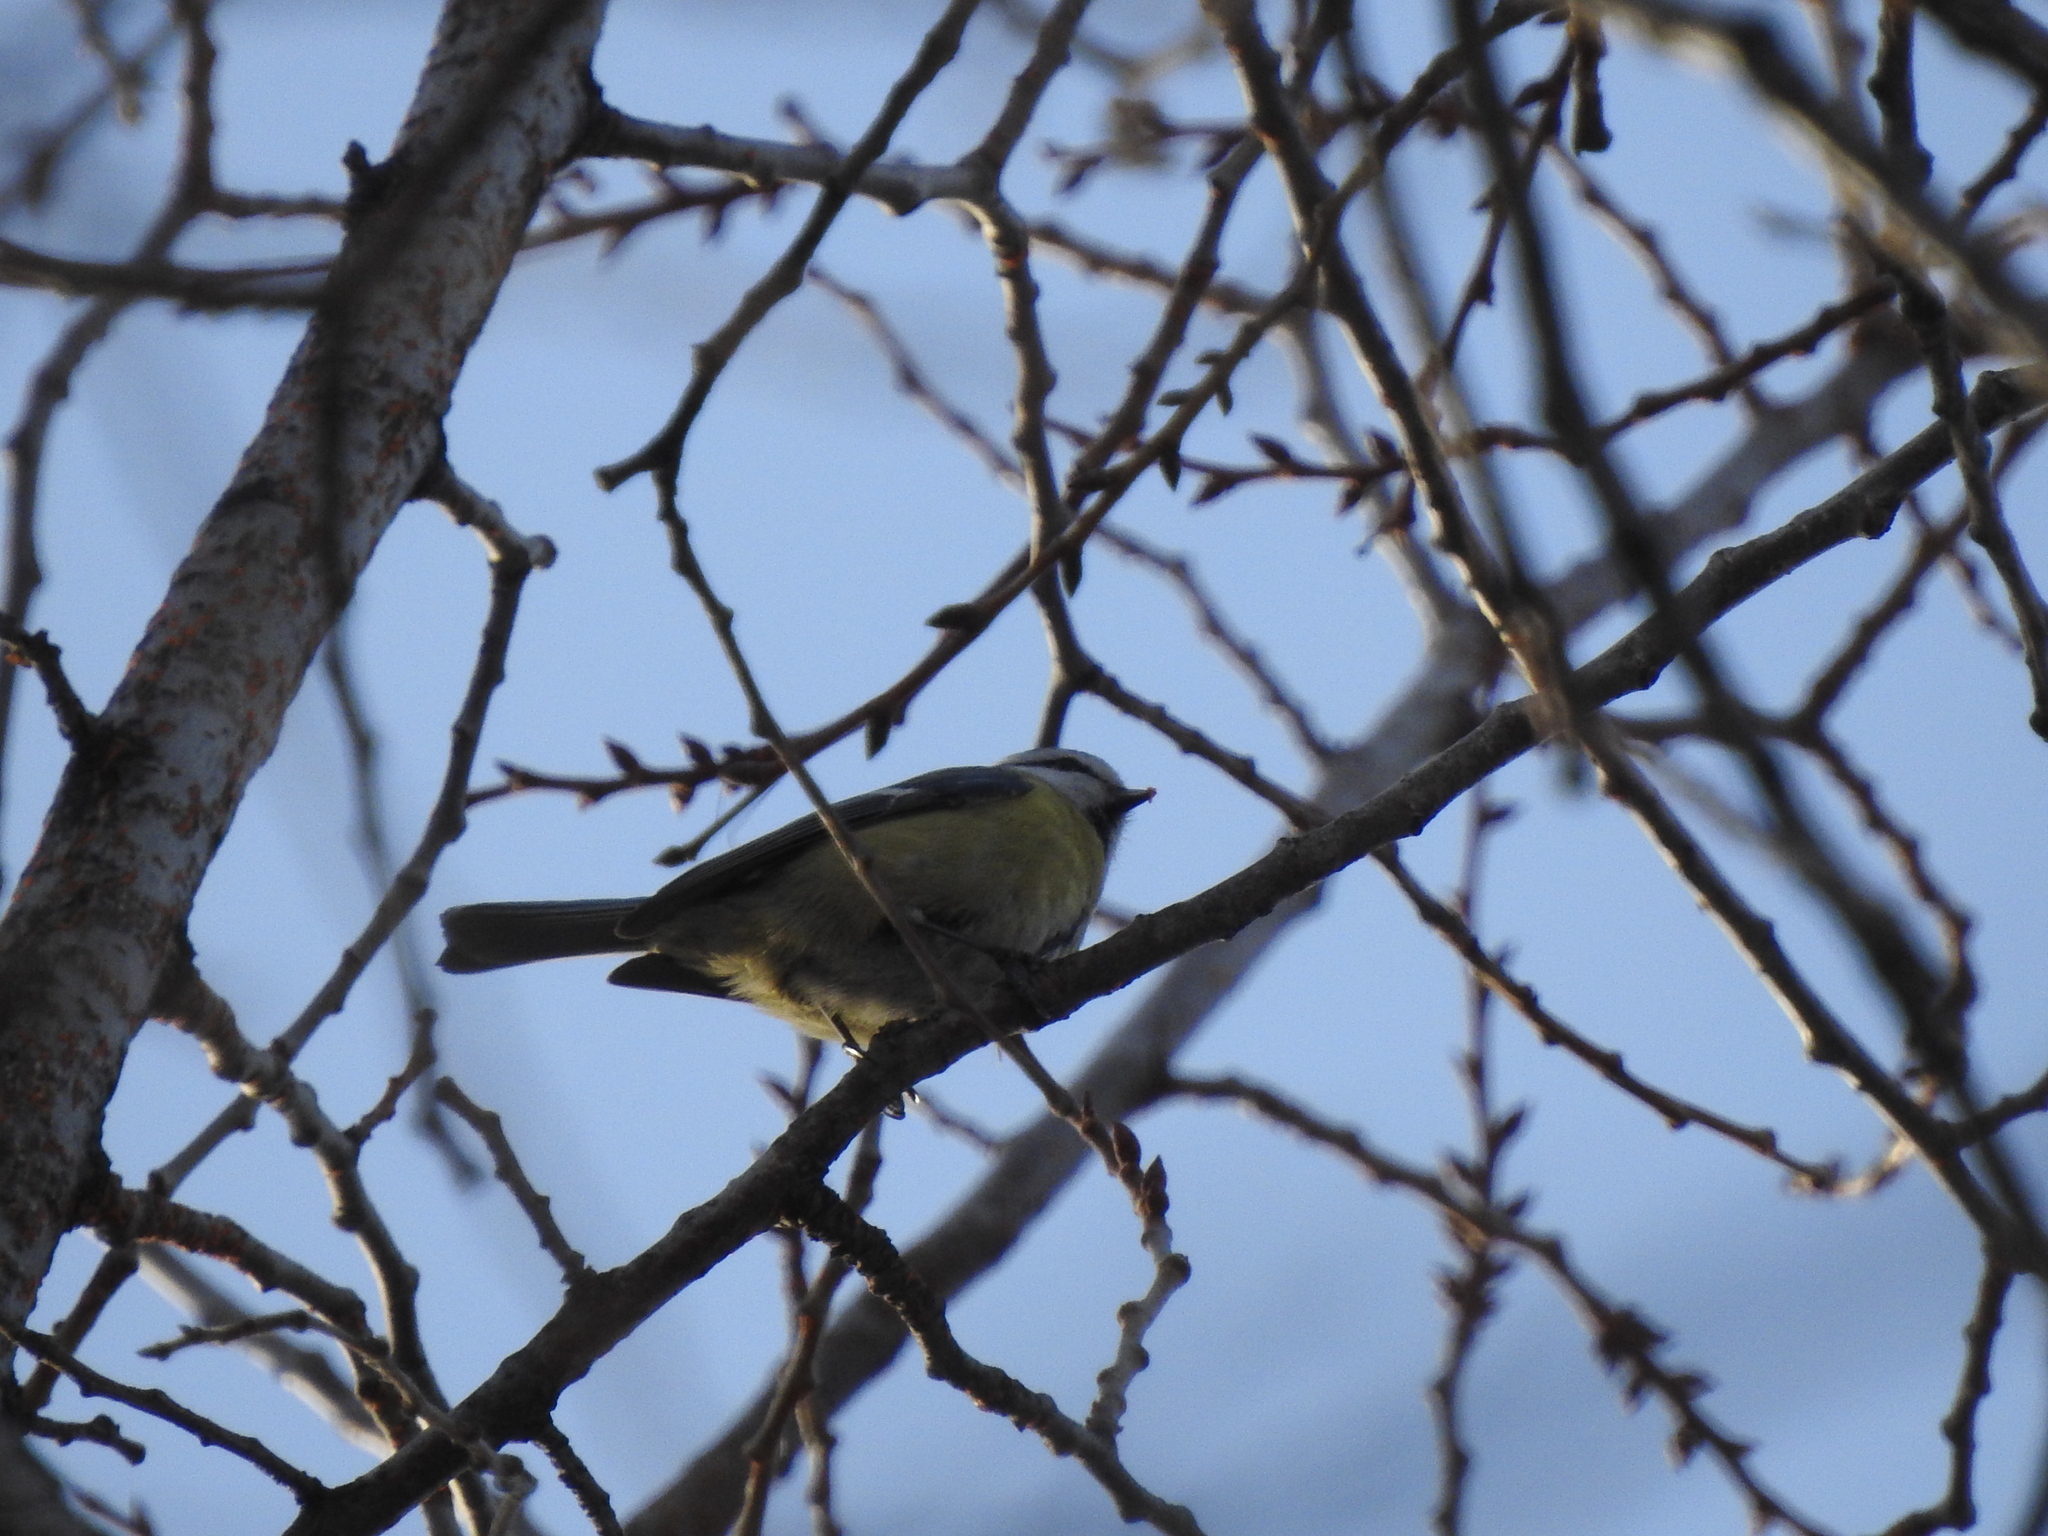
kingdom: Animalia
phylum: Chordata
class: Aves
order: Passeriformes
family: Paridae
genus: Cyanistes
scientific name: Cyanistes caeruleus
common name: Eurasian blue tit
